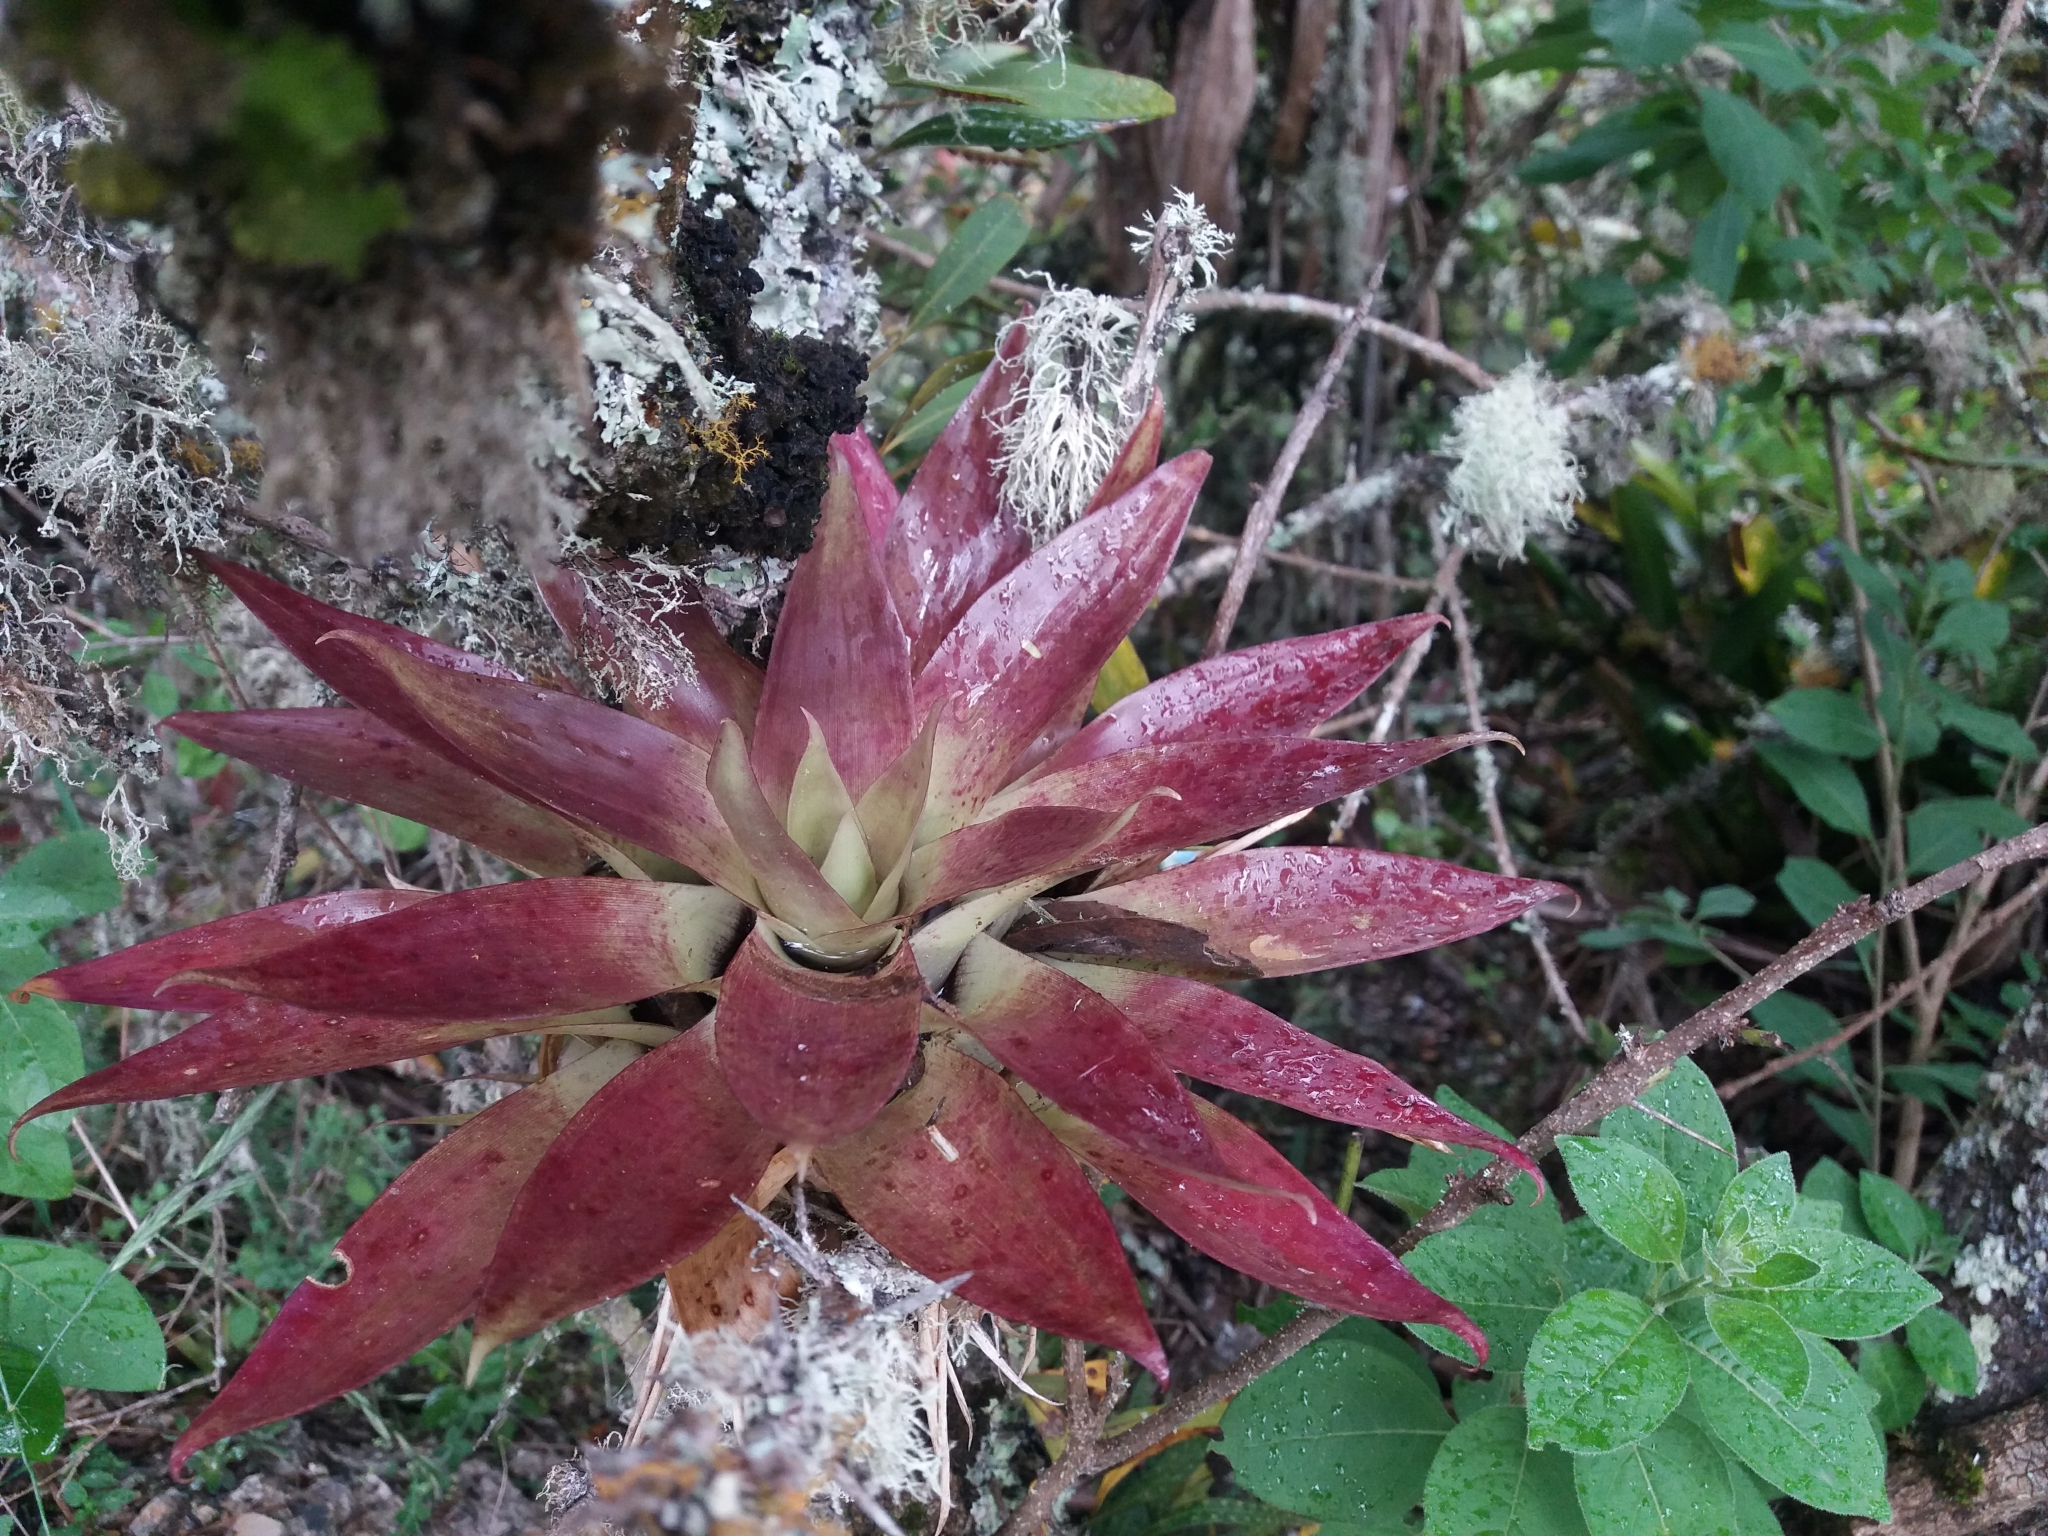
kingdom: Plantae
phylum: Tracheophyta
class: Liliopsida
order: Poales
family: Bromeliaceae
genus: Tillandsia
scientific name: Tillandsia biflora
